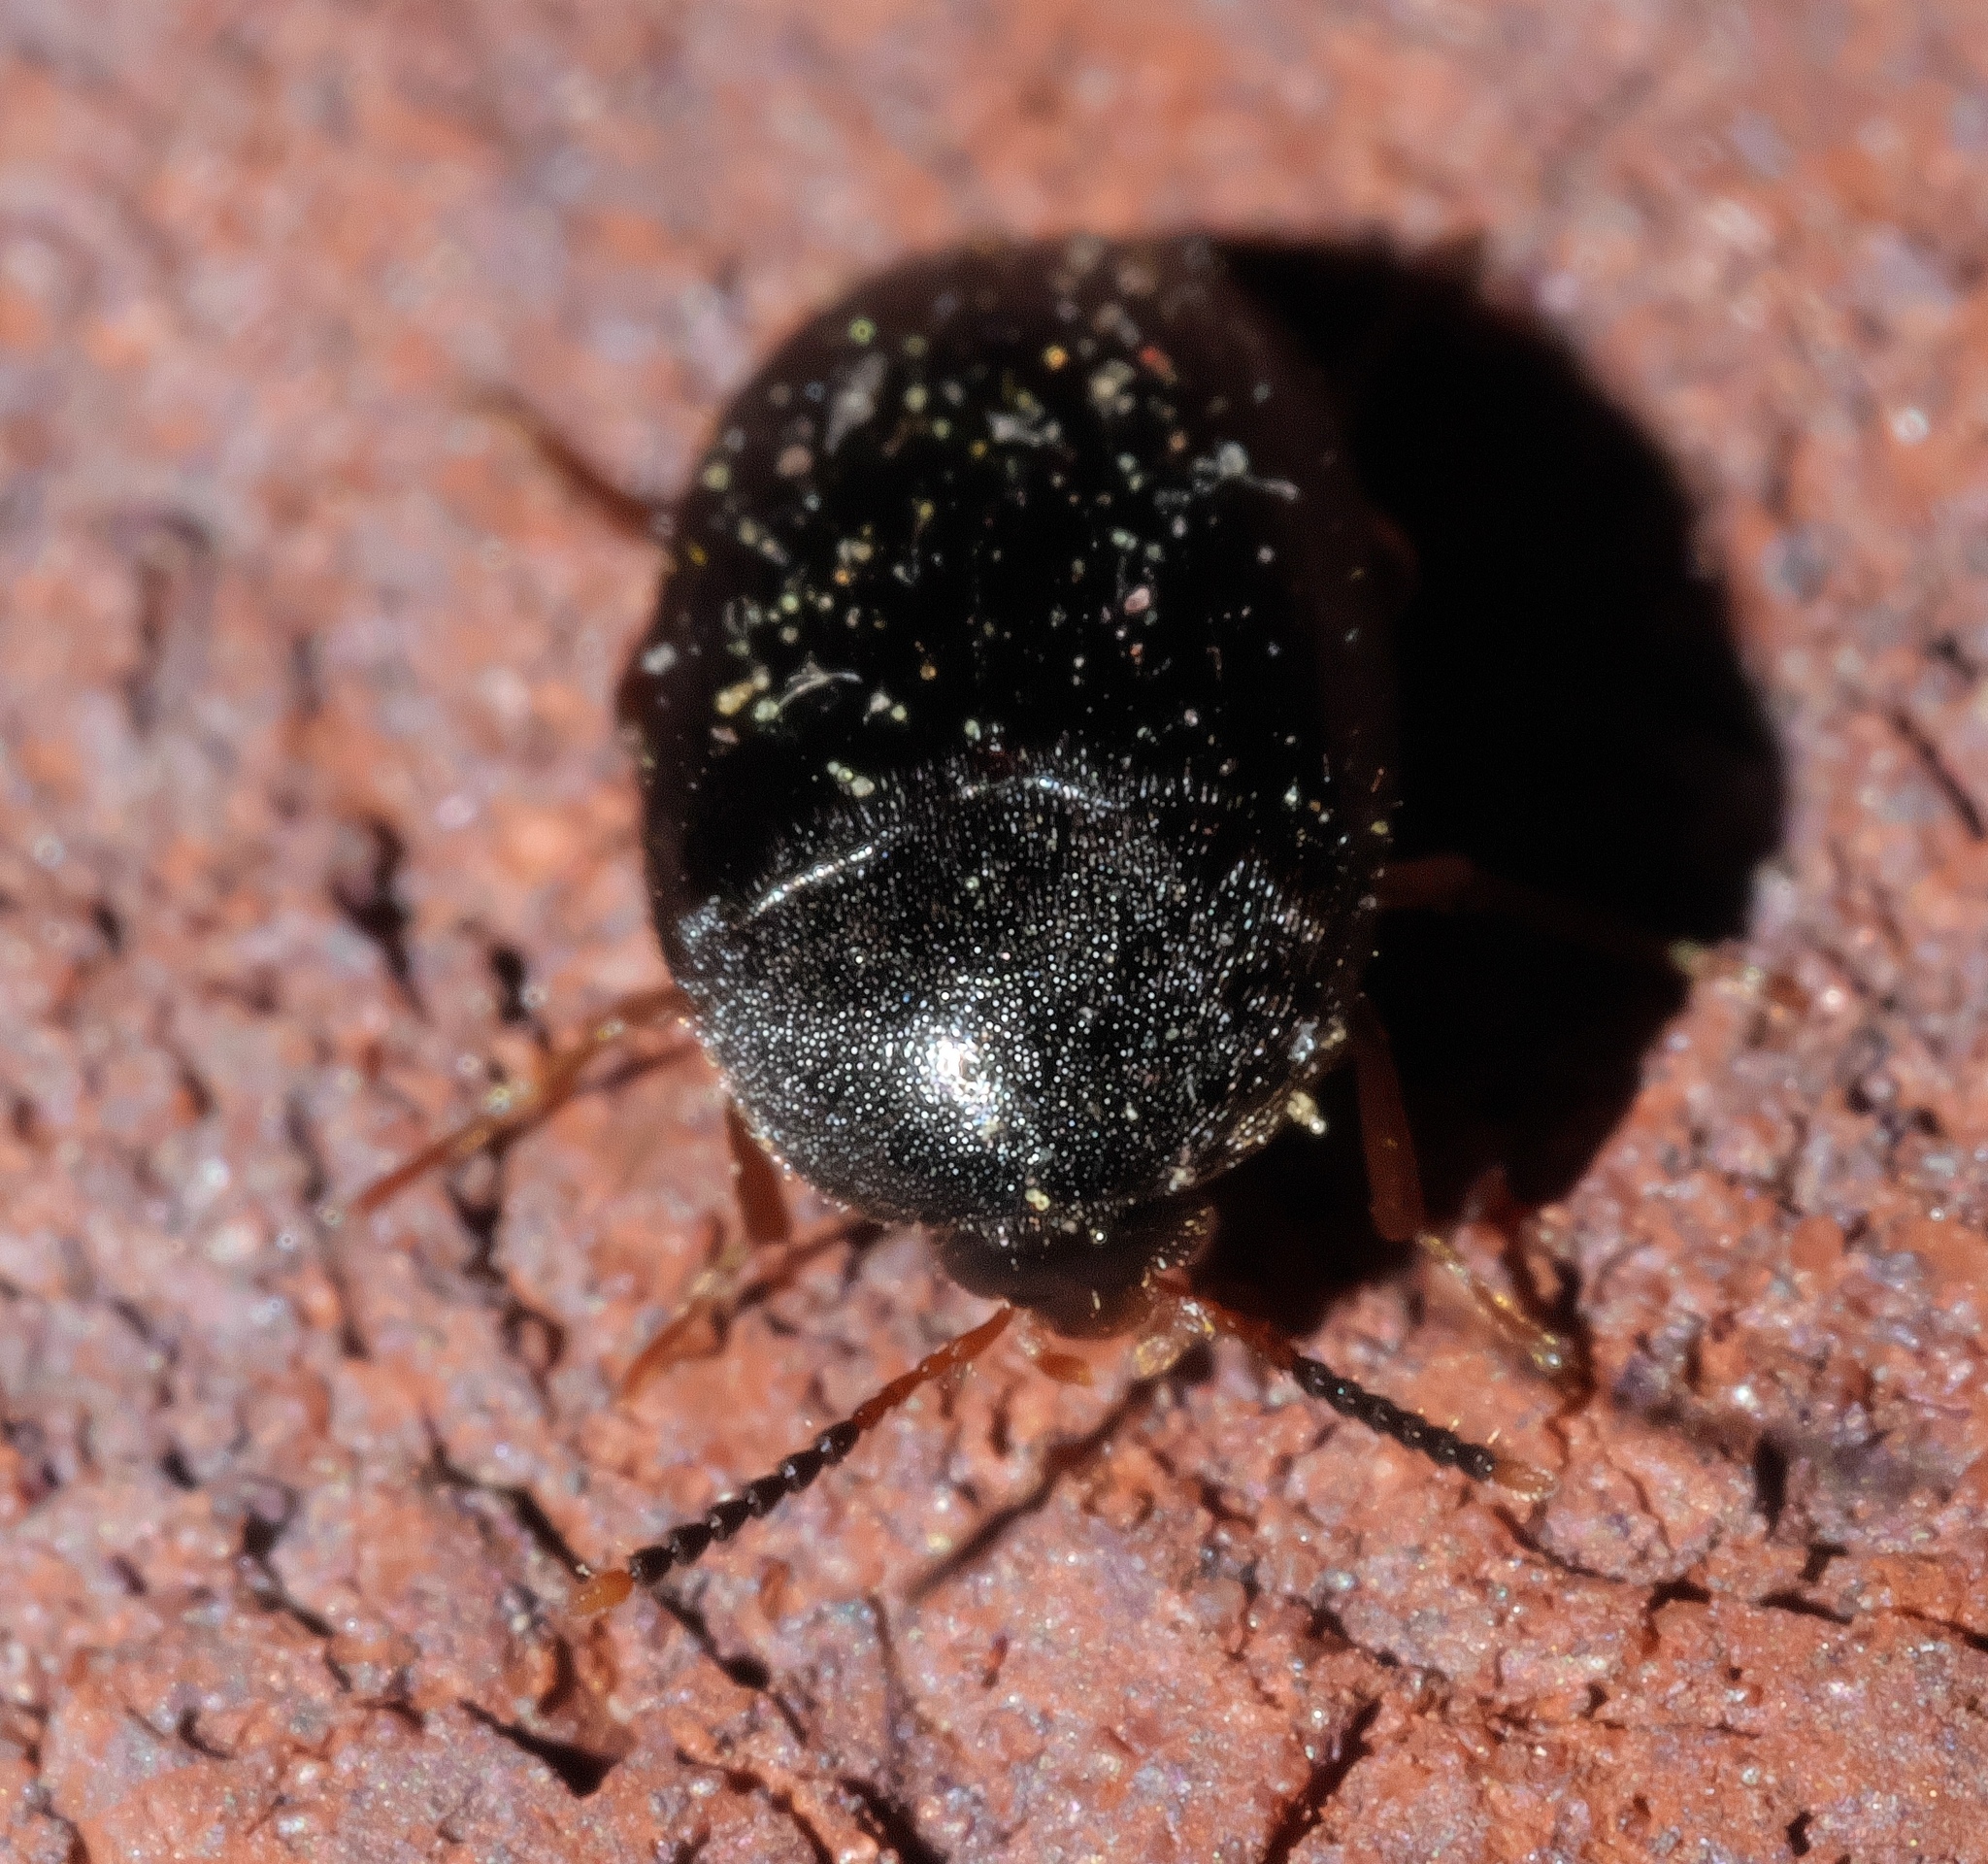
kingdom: Animalia
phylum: Arthropoda
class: Insecta
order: Coleoptera
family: Tetratomidae
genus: Eustrophopsis
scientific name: Eustrophopsis bicolor
